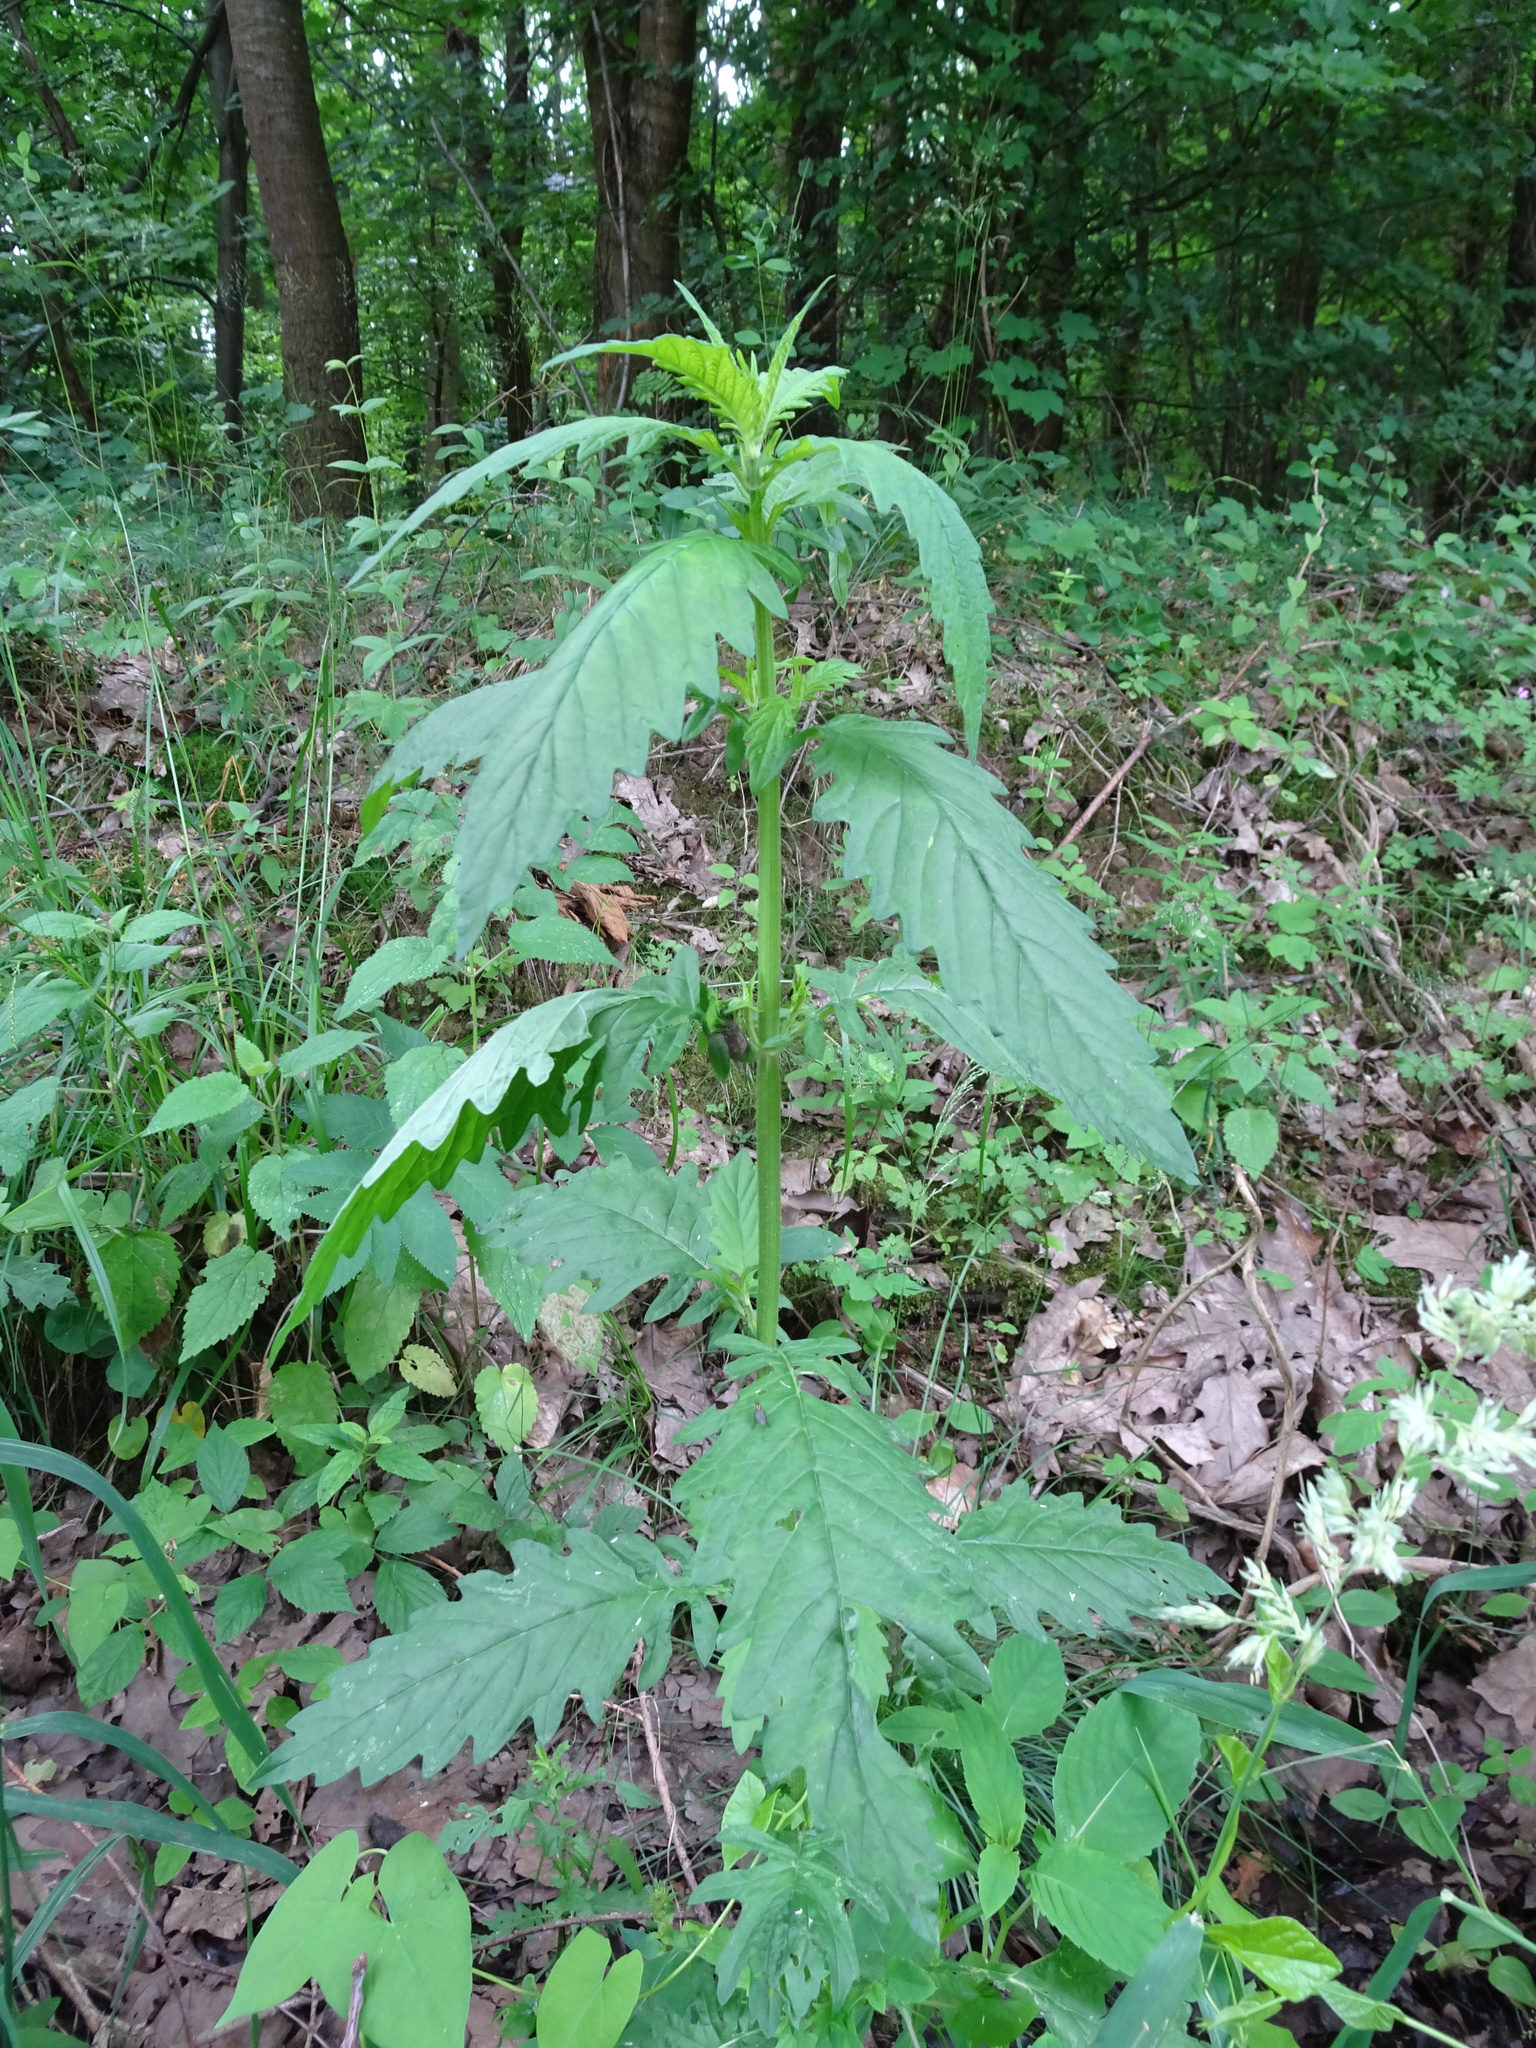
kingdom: Plantae
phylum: Tracheophyta
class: Magnoliopsida
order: Lamiales
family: Lamiaceae
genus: Lycopus
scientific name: Lycopus europaeus
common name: European bugleweed
